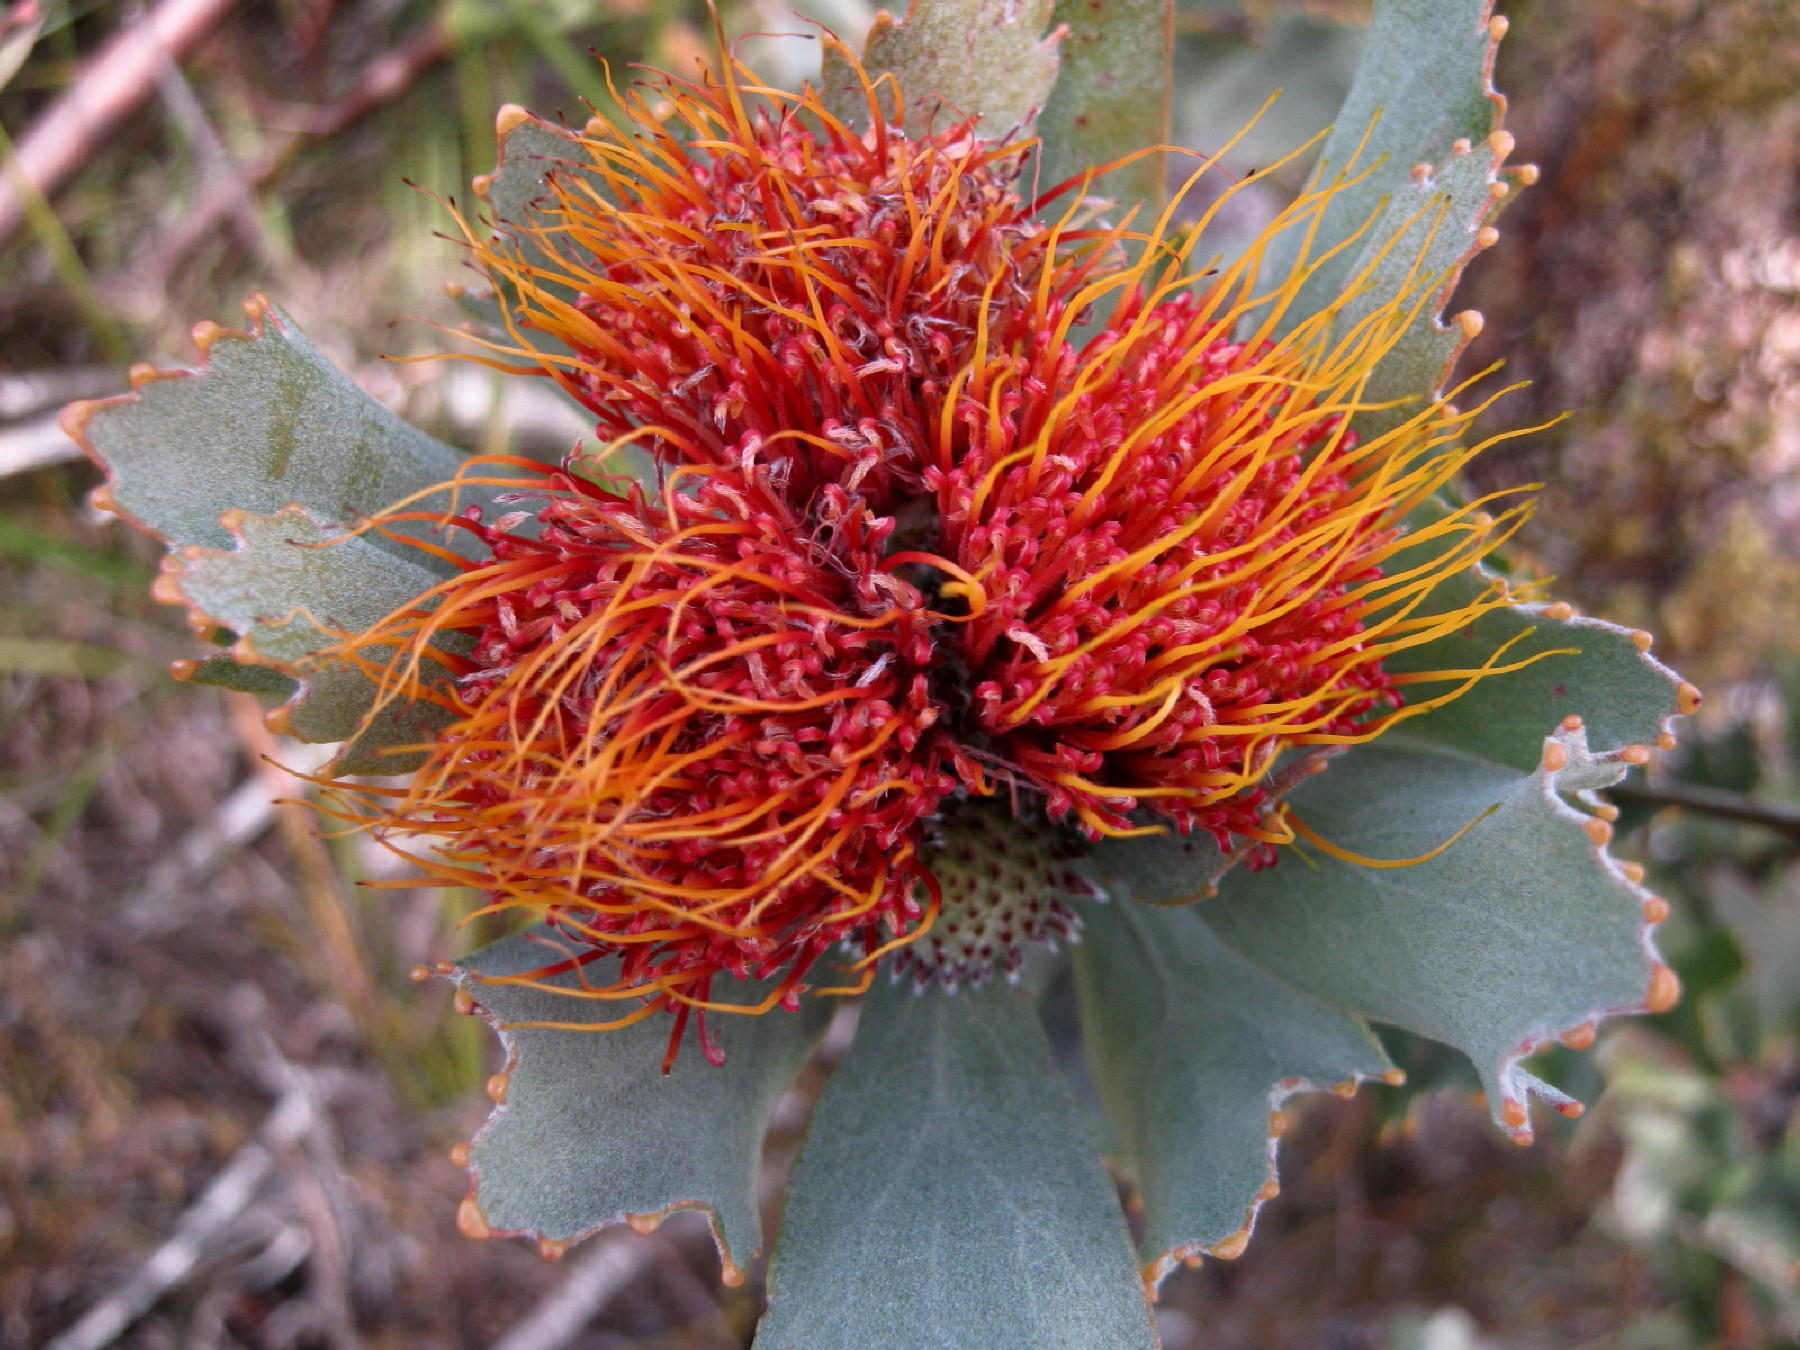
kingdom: Plantae
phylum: Tracheophyta
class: Magnoliopsida
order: Proteales
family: Proteaceae
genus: Leucospermum
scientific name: Leucospermum mundii
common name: Langeberg pincushion
